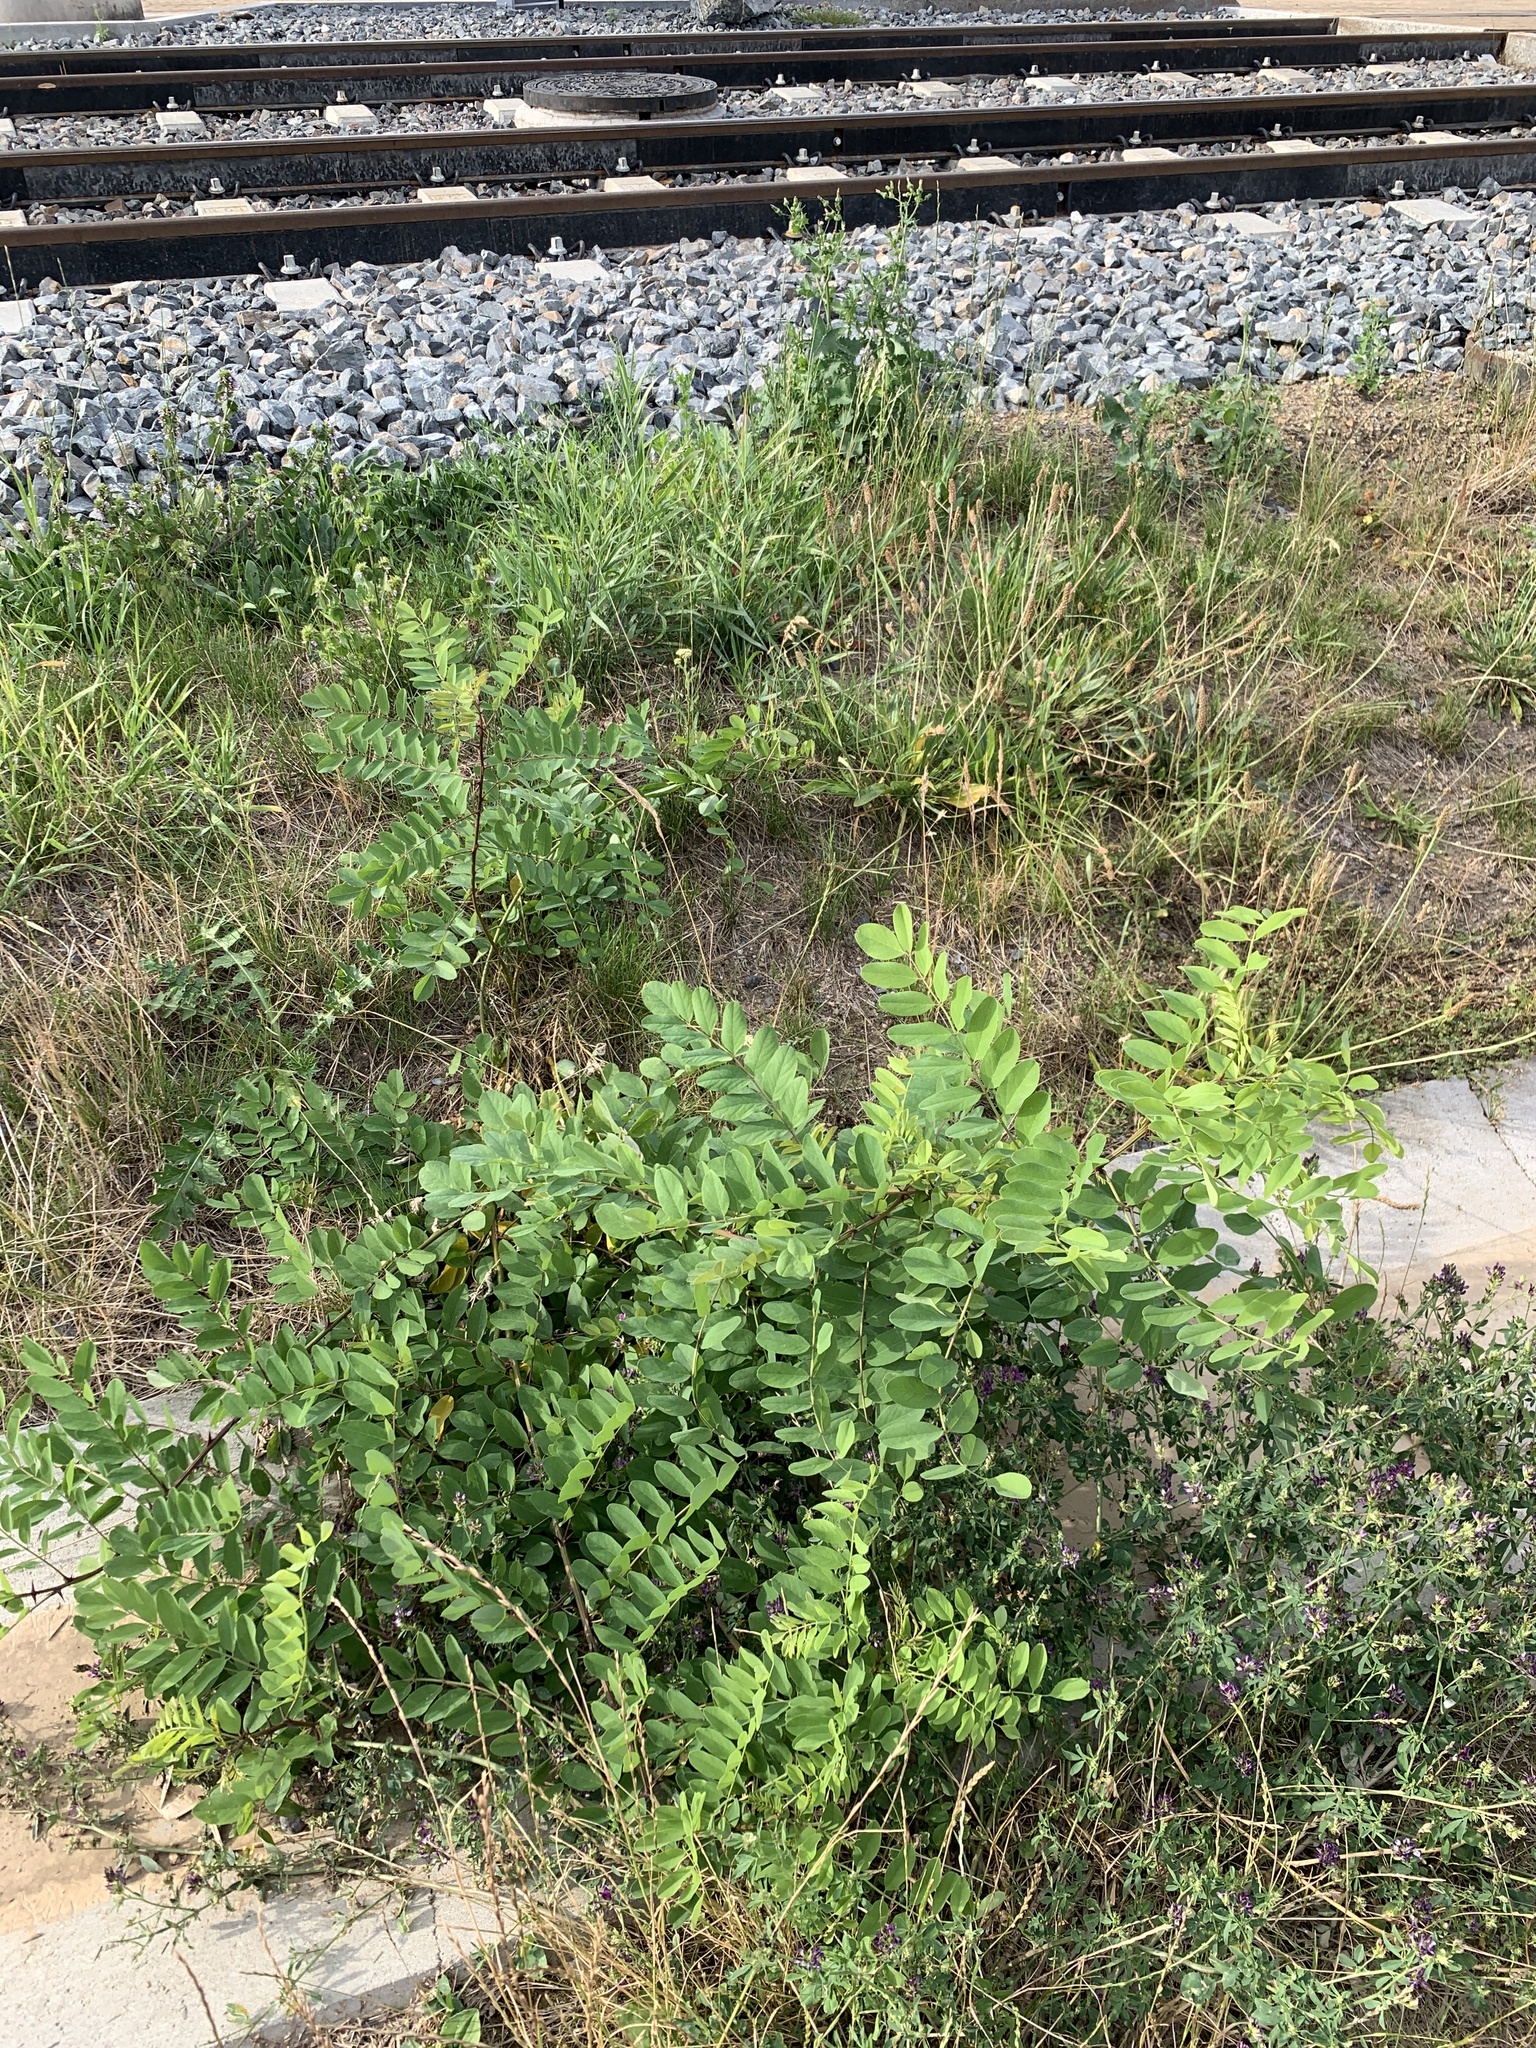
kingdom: Plantae
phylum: Tracheophyta
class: Magnoliopsida
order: Fabales
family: Fabaceae
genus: Robinia
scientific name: Robinia pseudoacacia
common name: Black locust
